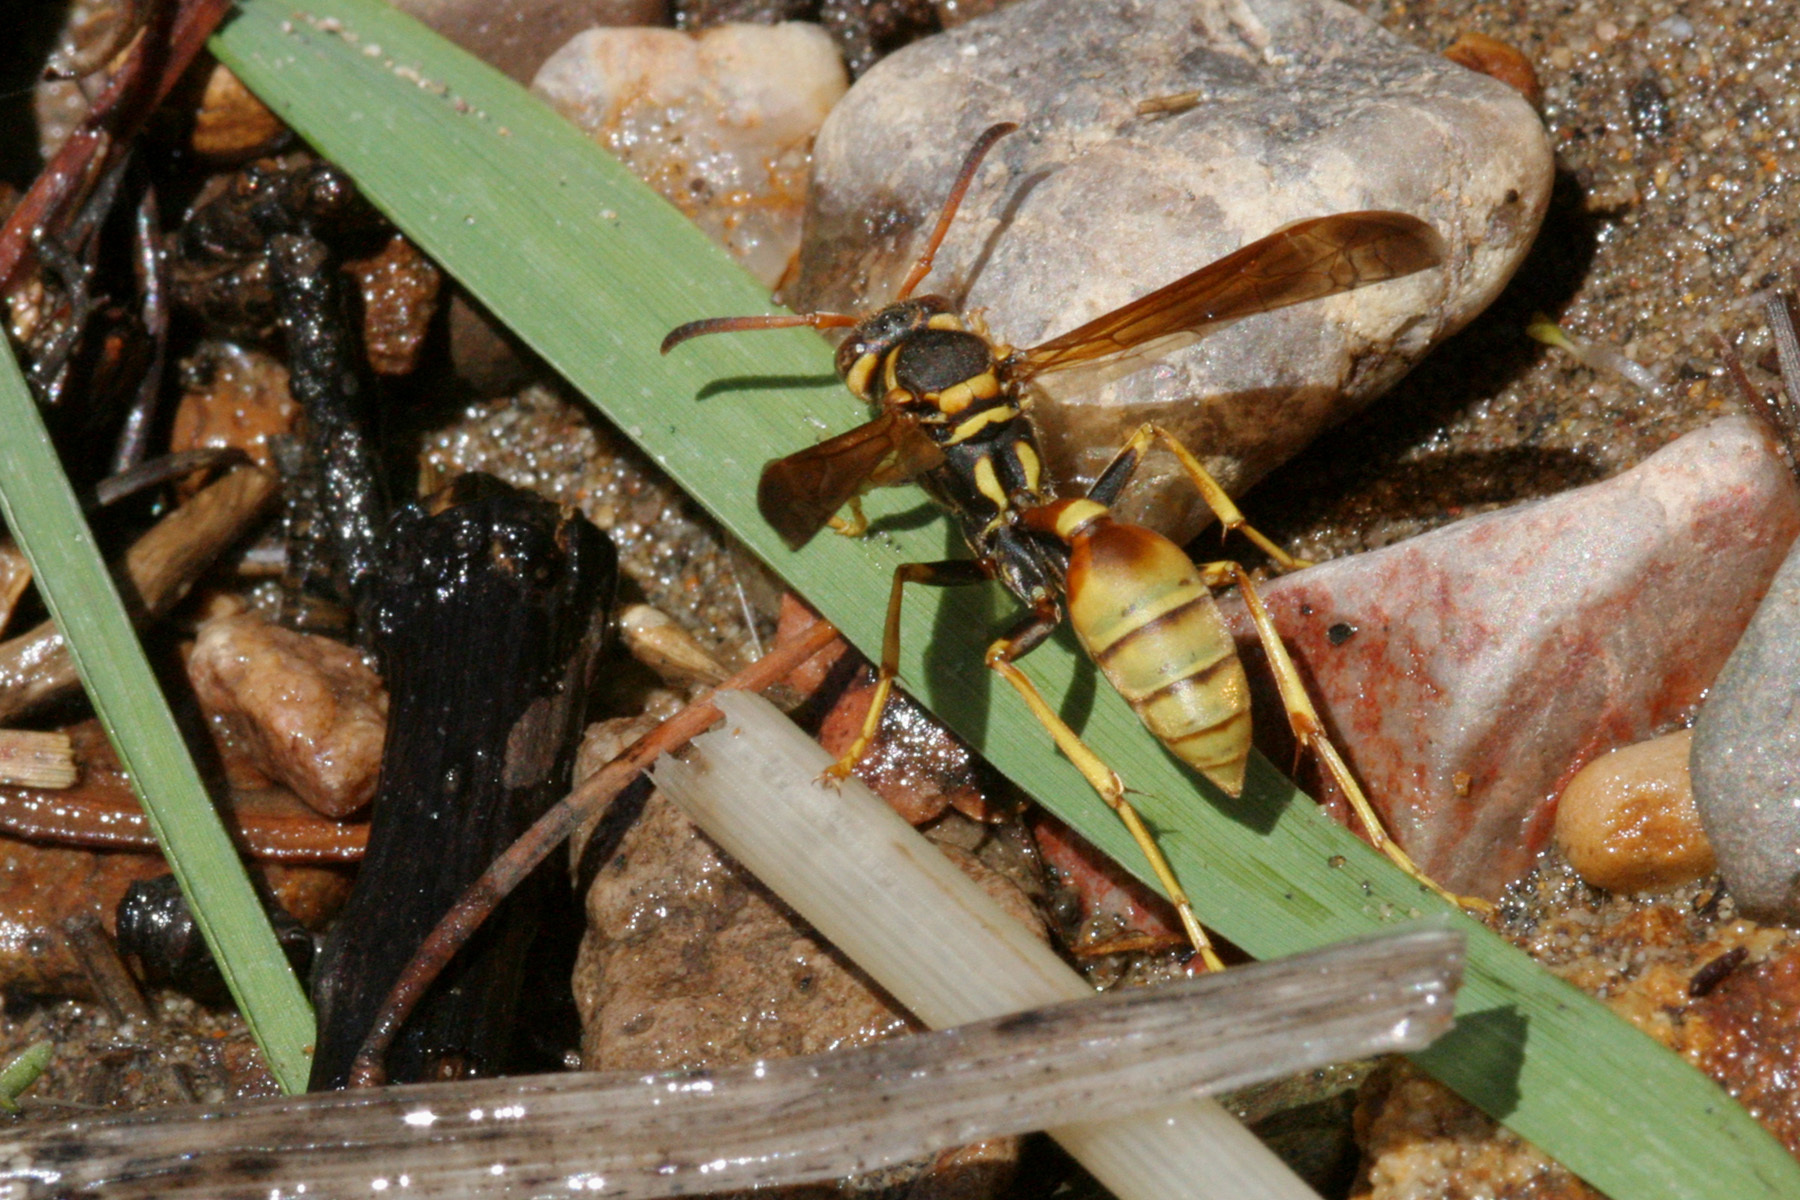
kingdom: Animalia
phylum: Arthropoda
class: Insecta
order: Hymenoptera
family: Vespidae
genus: Mischocyttarus
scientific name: Mischocyttarus flavitarsis
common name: Wasp
